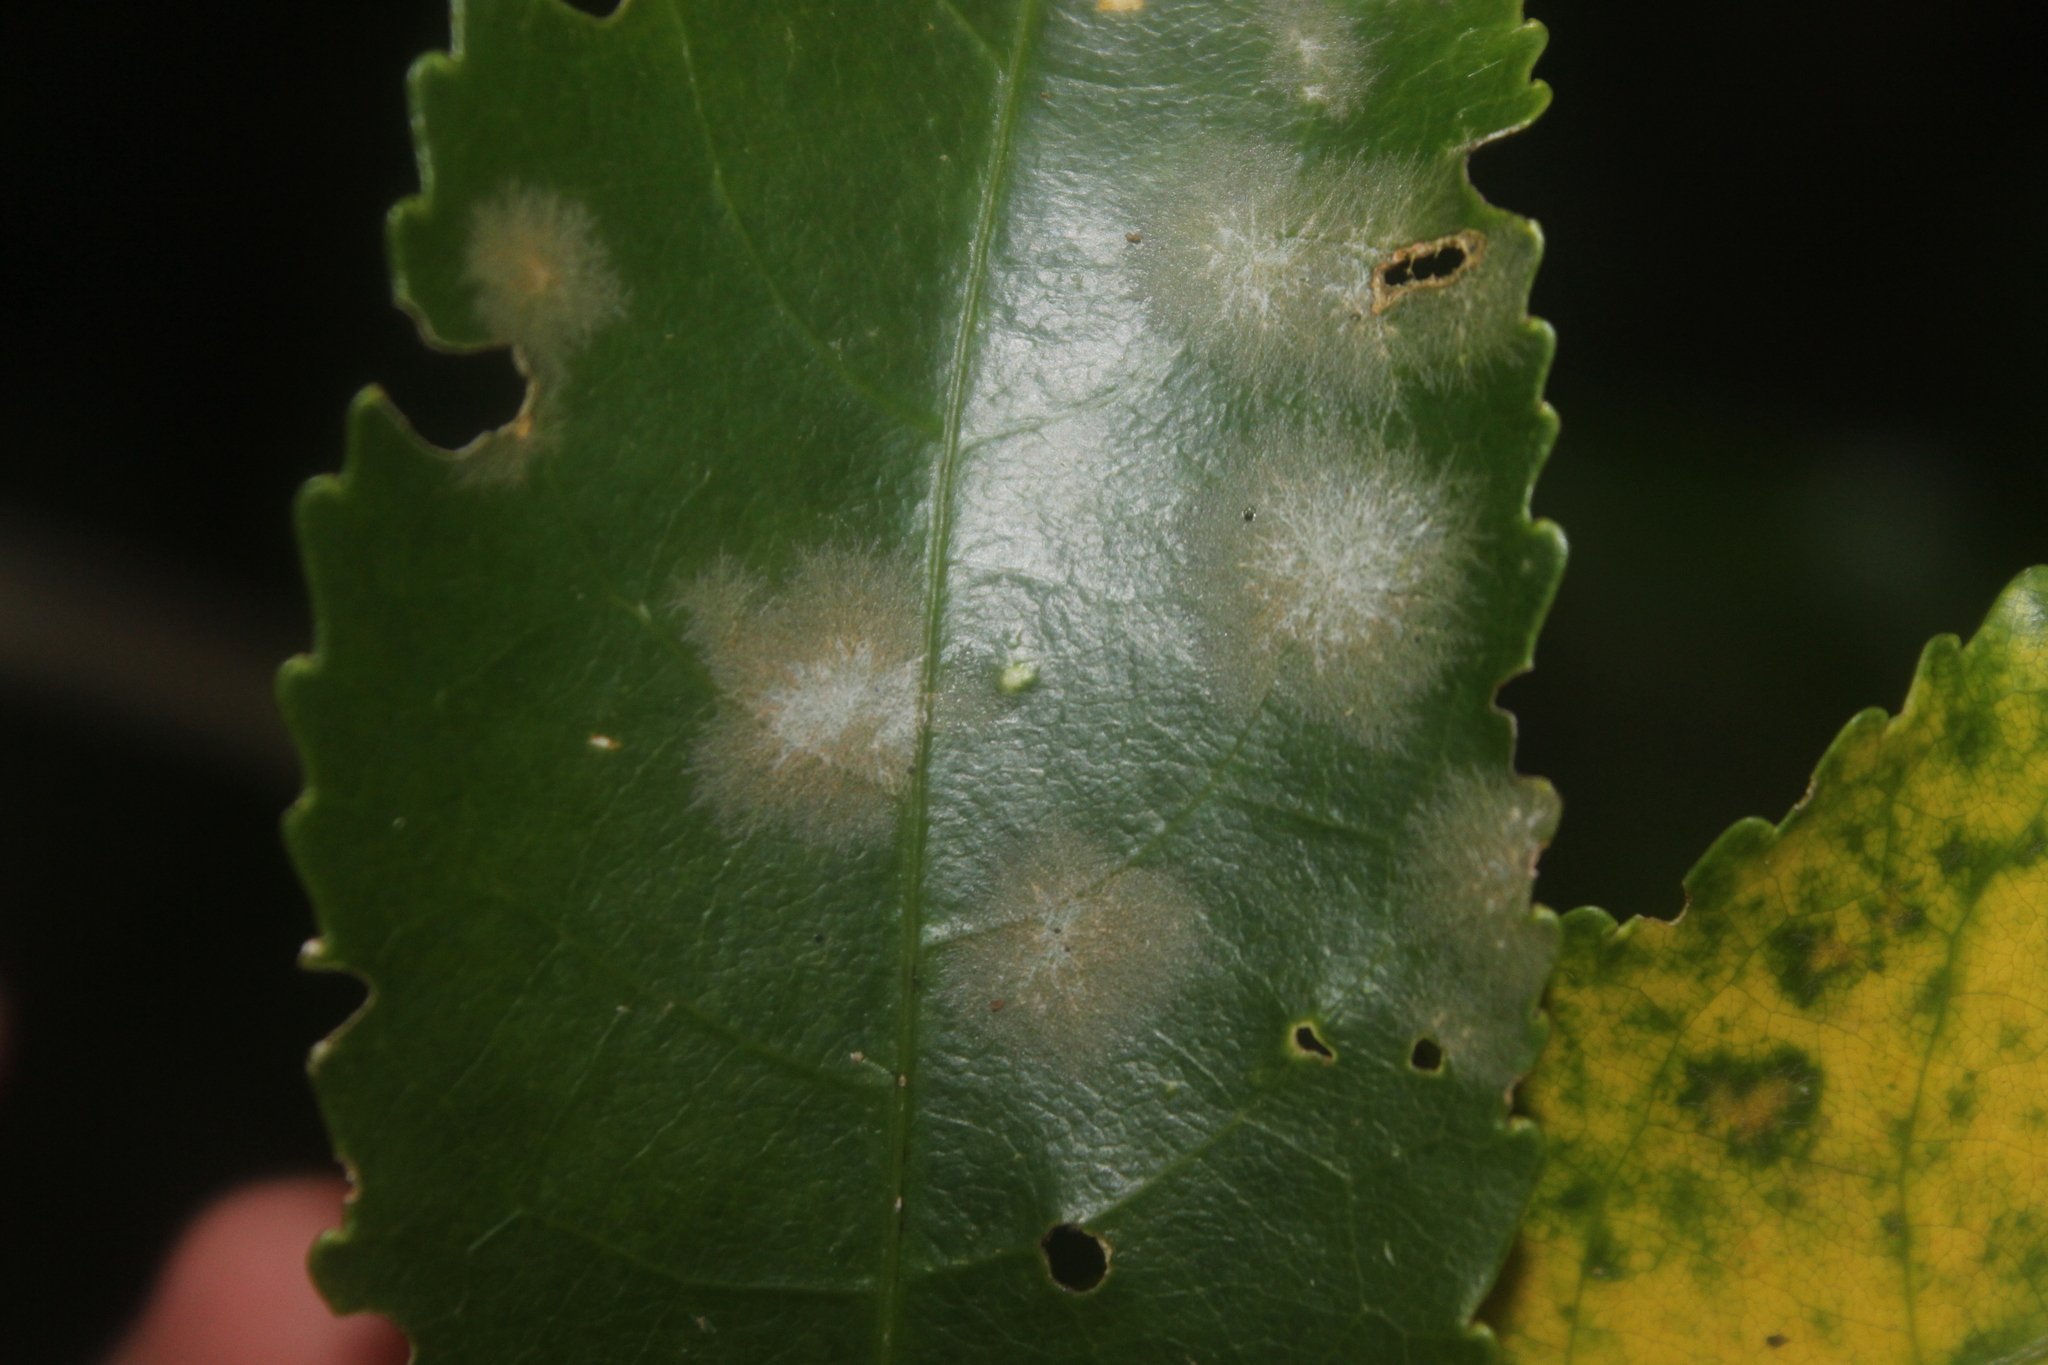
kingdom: Plantae
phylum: Chlorophyta
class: Ulvophyceae
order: Trentepohliales
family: Trentepohliaceae
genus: Cephaleuros
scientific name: Cephaleuros
